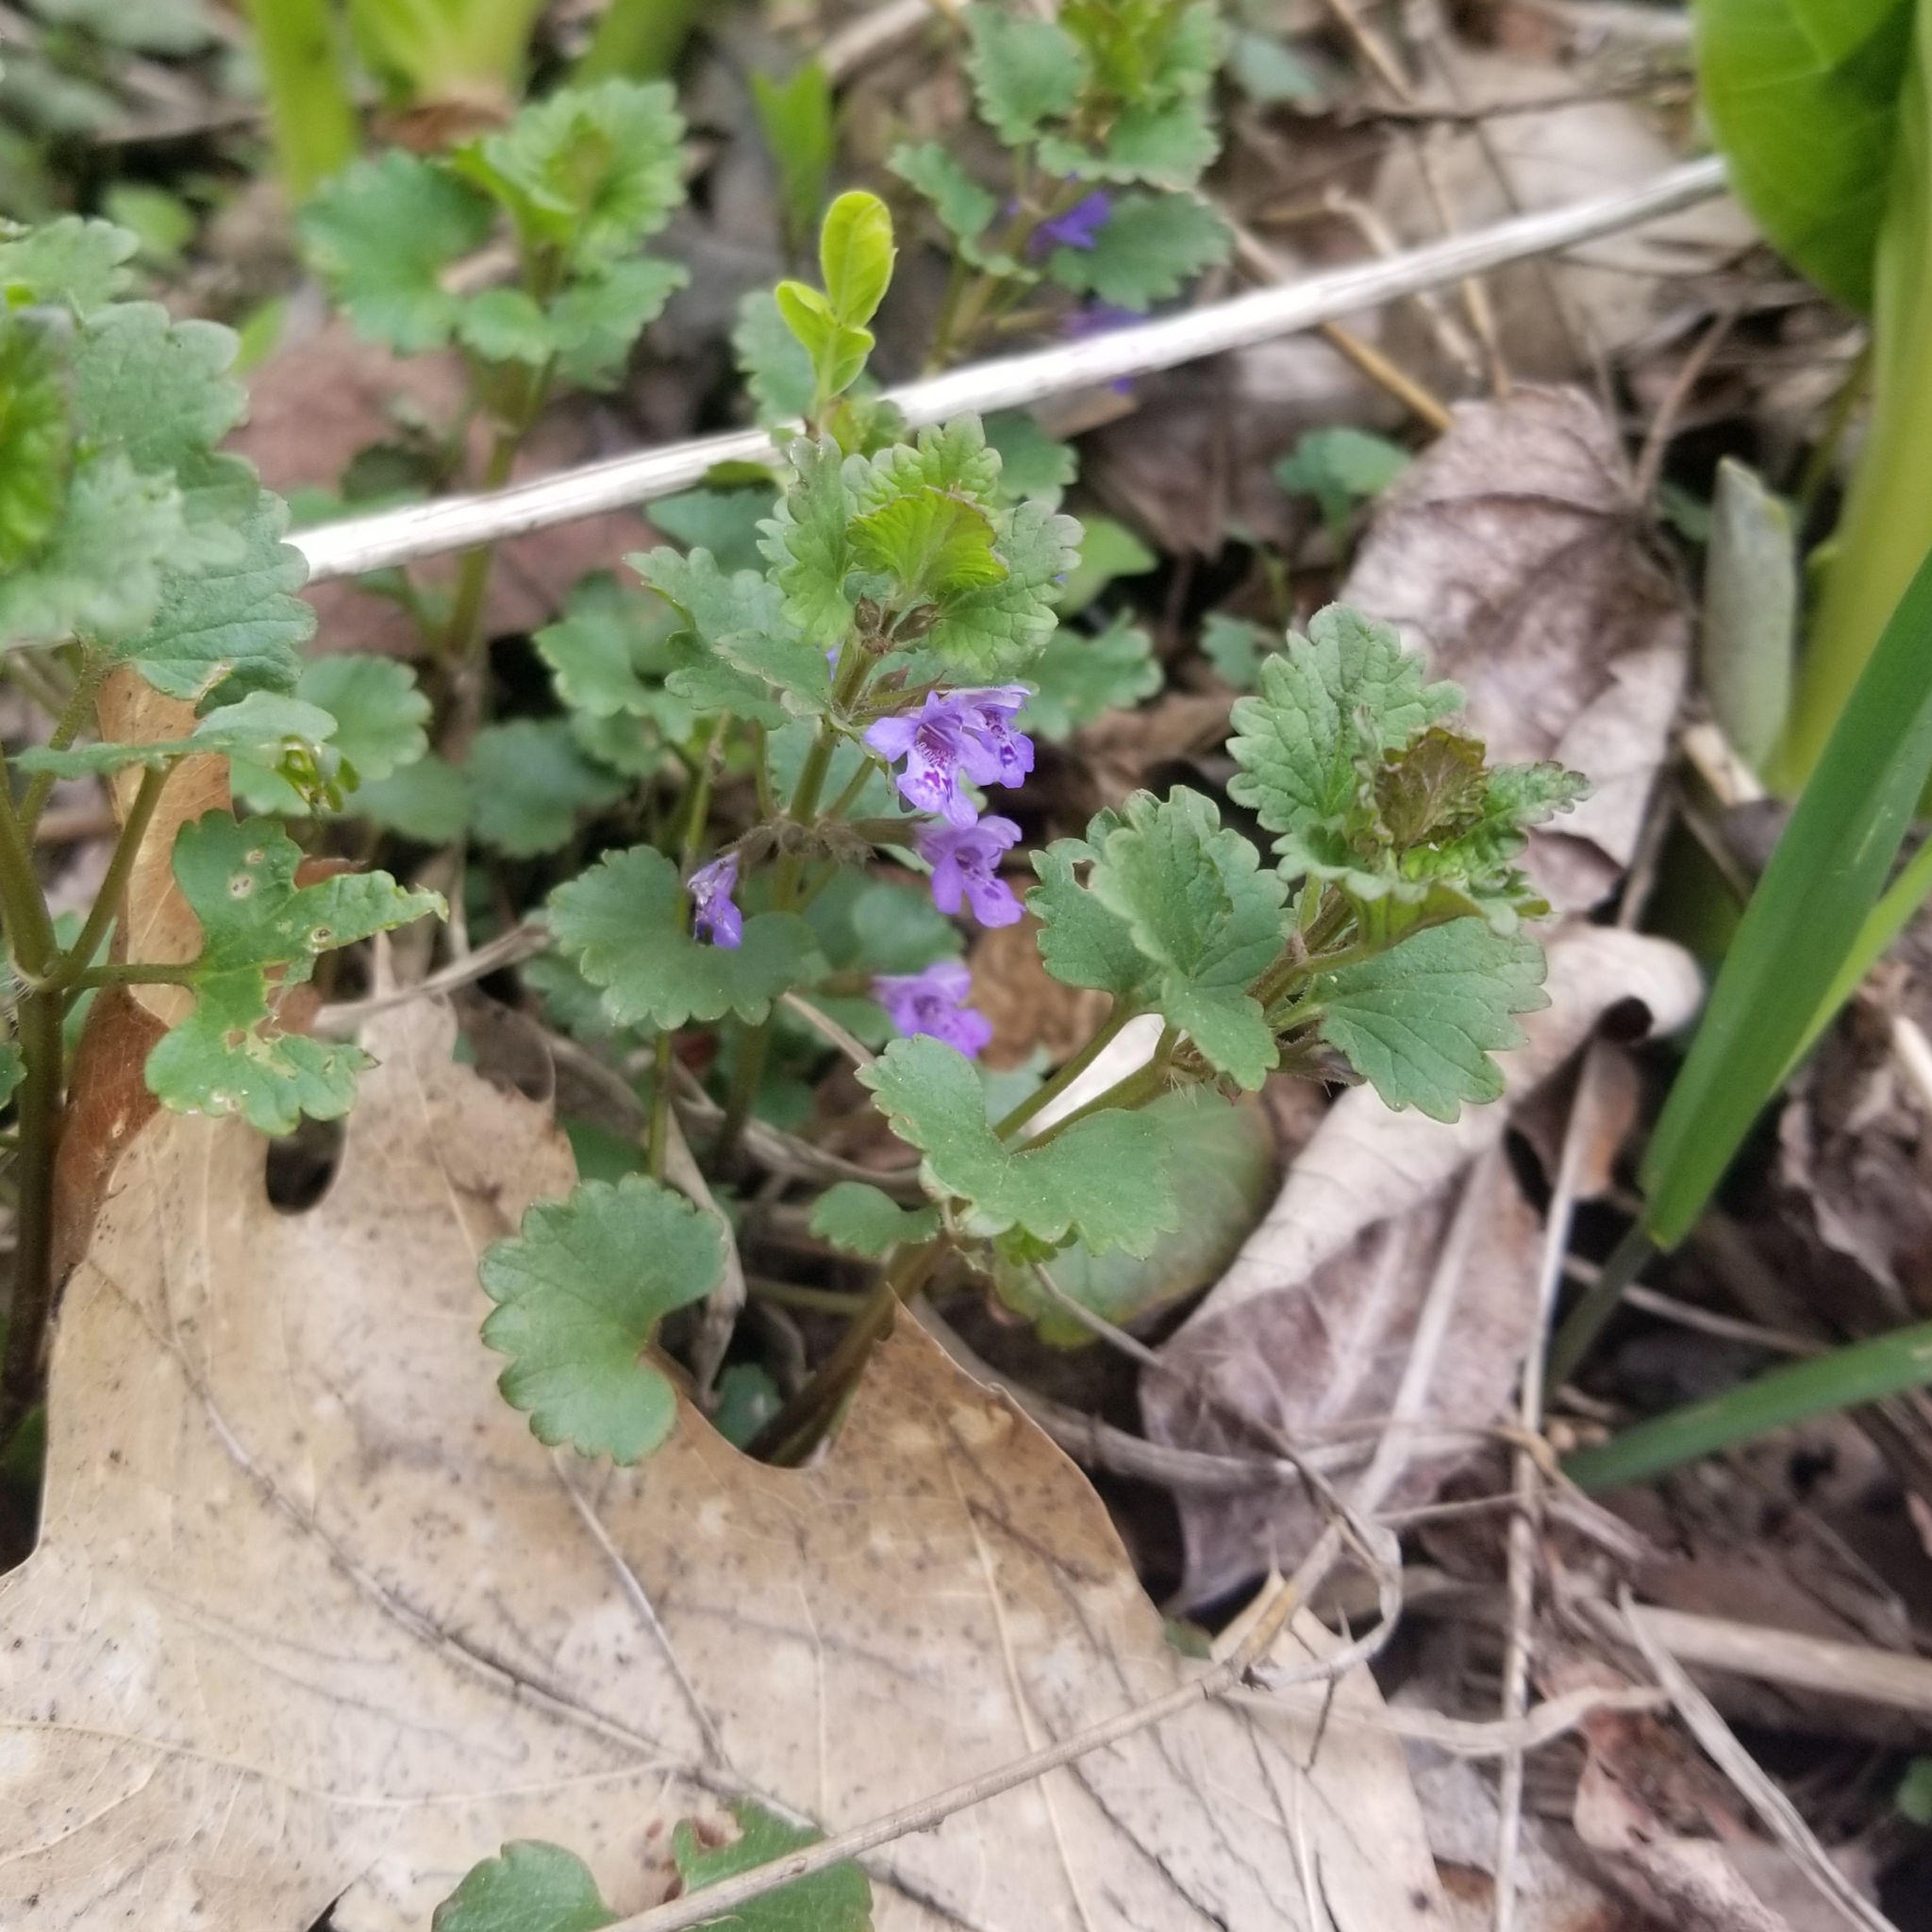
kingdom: Plantae
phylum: Tracheophyta
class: Magnoliopsida
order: Lamiales
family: Lamiaceae
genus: Glechoma
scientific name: Glechoma hederacea
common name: Ground ivy
